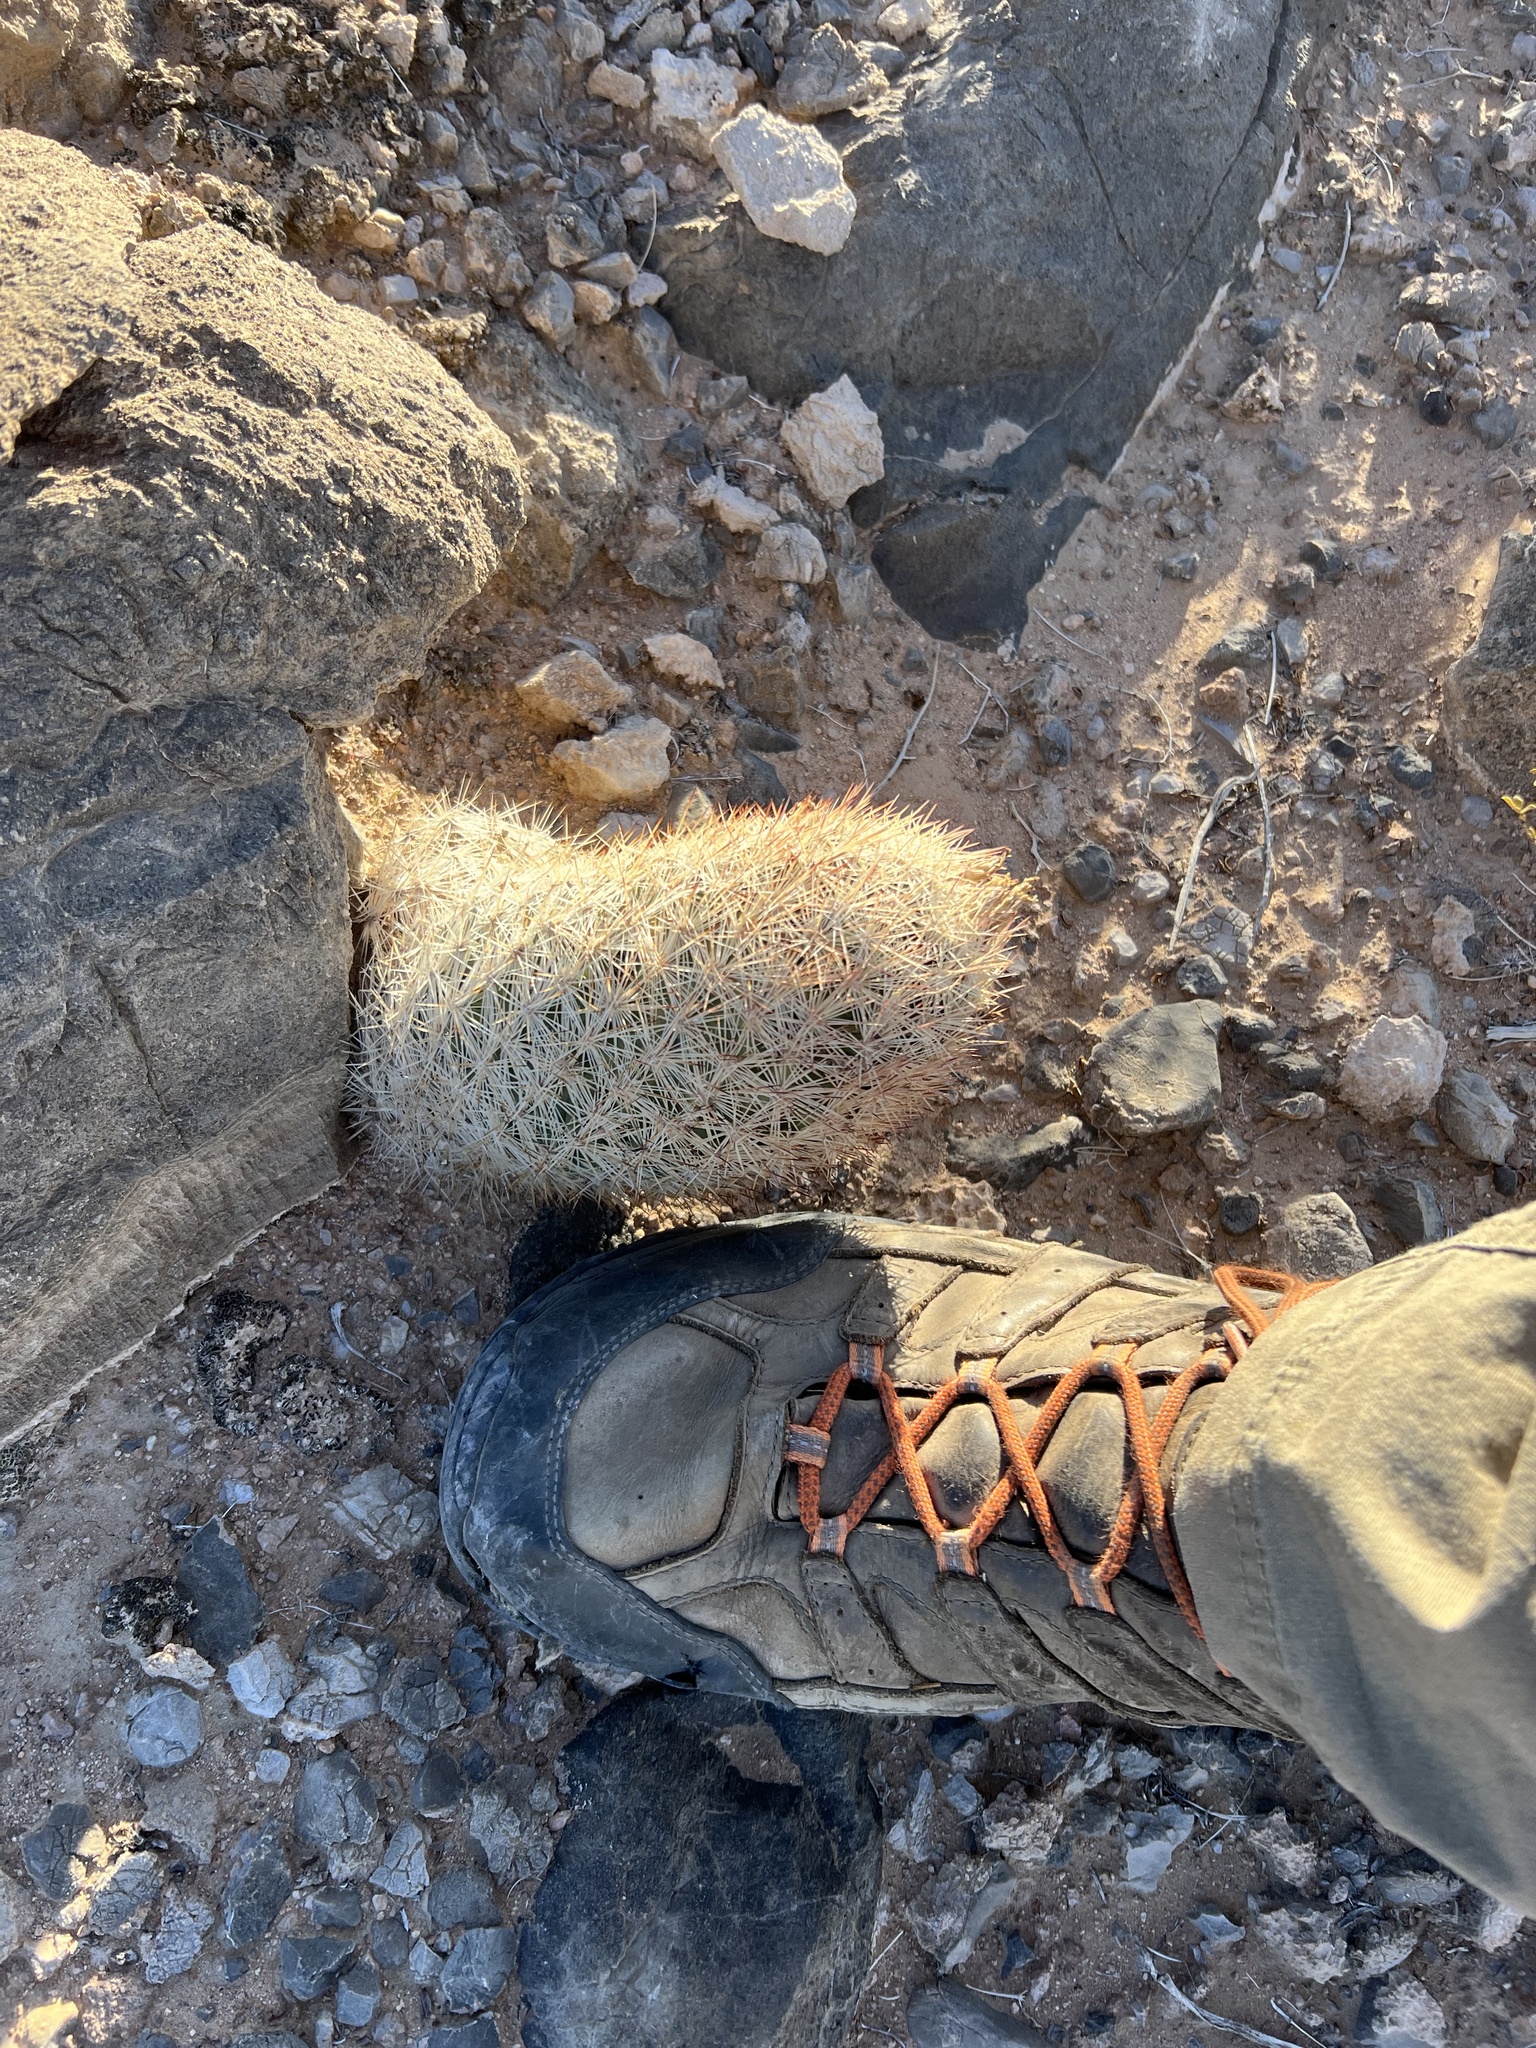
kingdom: Plantae
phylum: Tracheophyta
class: Magnoliopsida
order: Caryophyllales
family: Cactaceae
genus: Pelecyphora
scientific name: Pelecyphora dasyacantha
